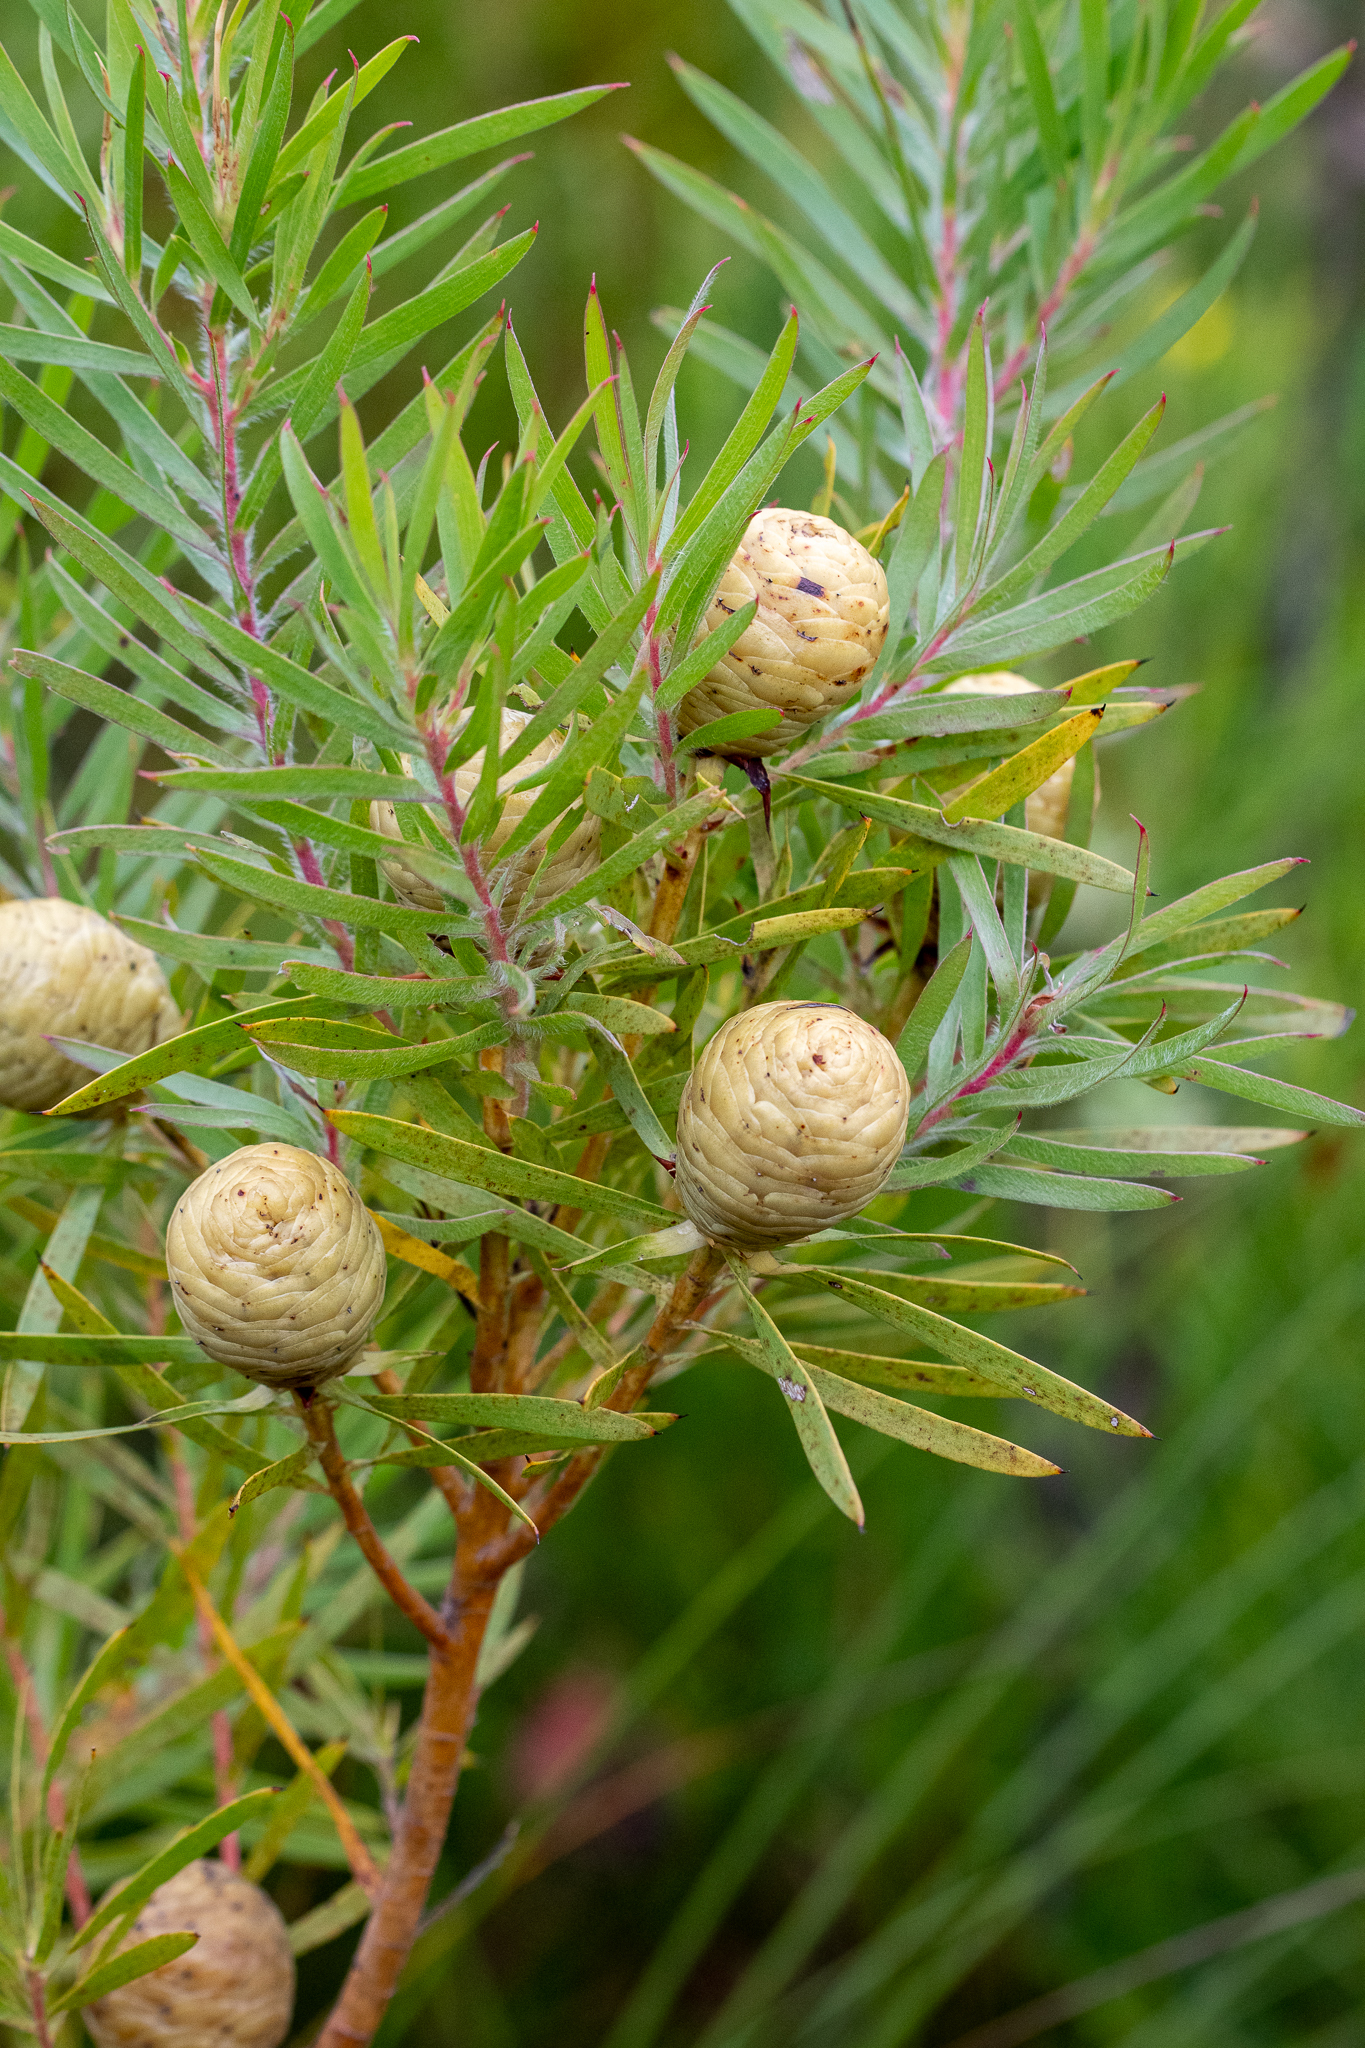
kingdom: Plantae
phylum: Tracheophyta
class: Magnoliopsida
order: Proteales
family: Proteaceae
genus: Leucadendron
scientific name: Leucadendron salicifolium
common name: Common stream conebush
